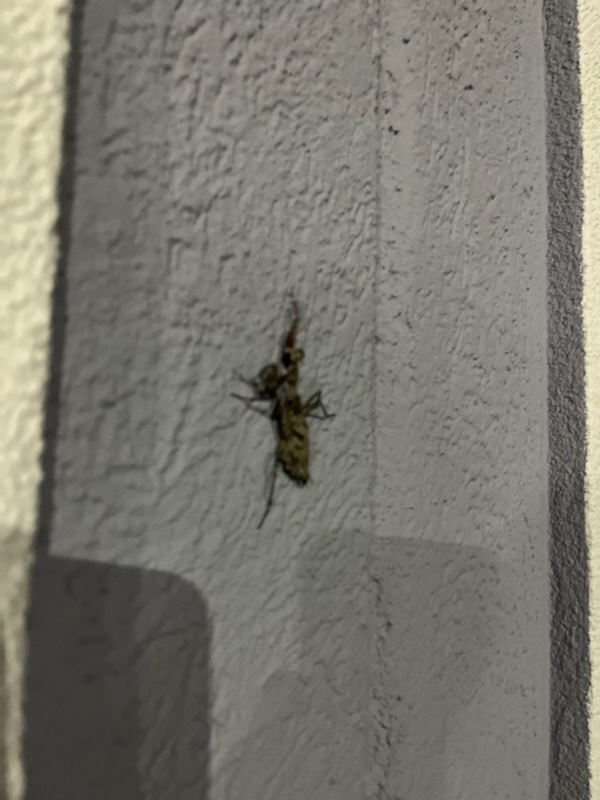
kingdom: Animalia
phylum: Arthropoda
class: Insecta
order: Mantodea
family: Epaphroditidae
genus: Gonatista
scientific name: Gonatista grisea
